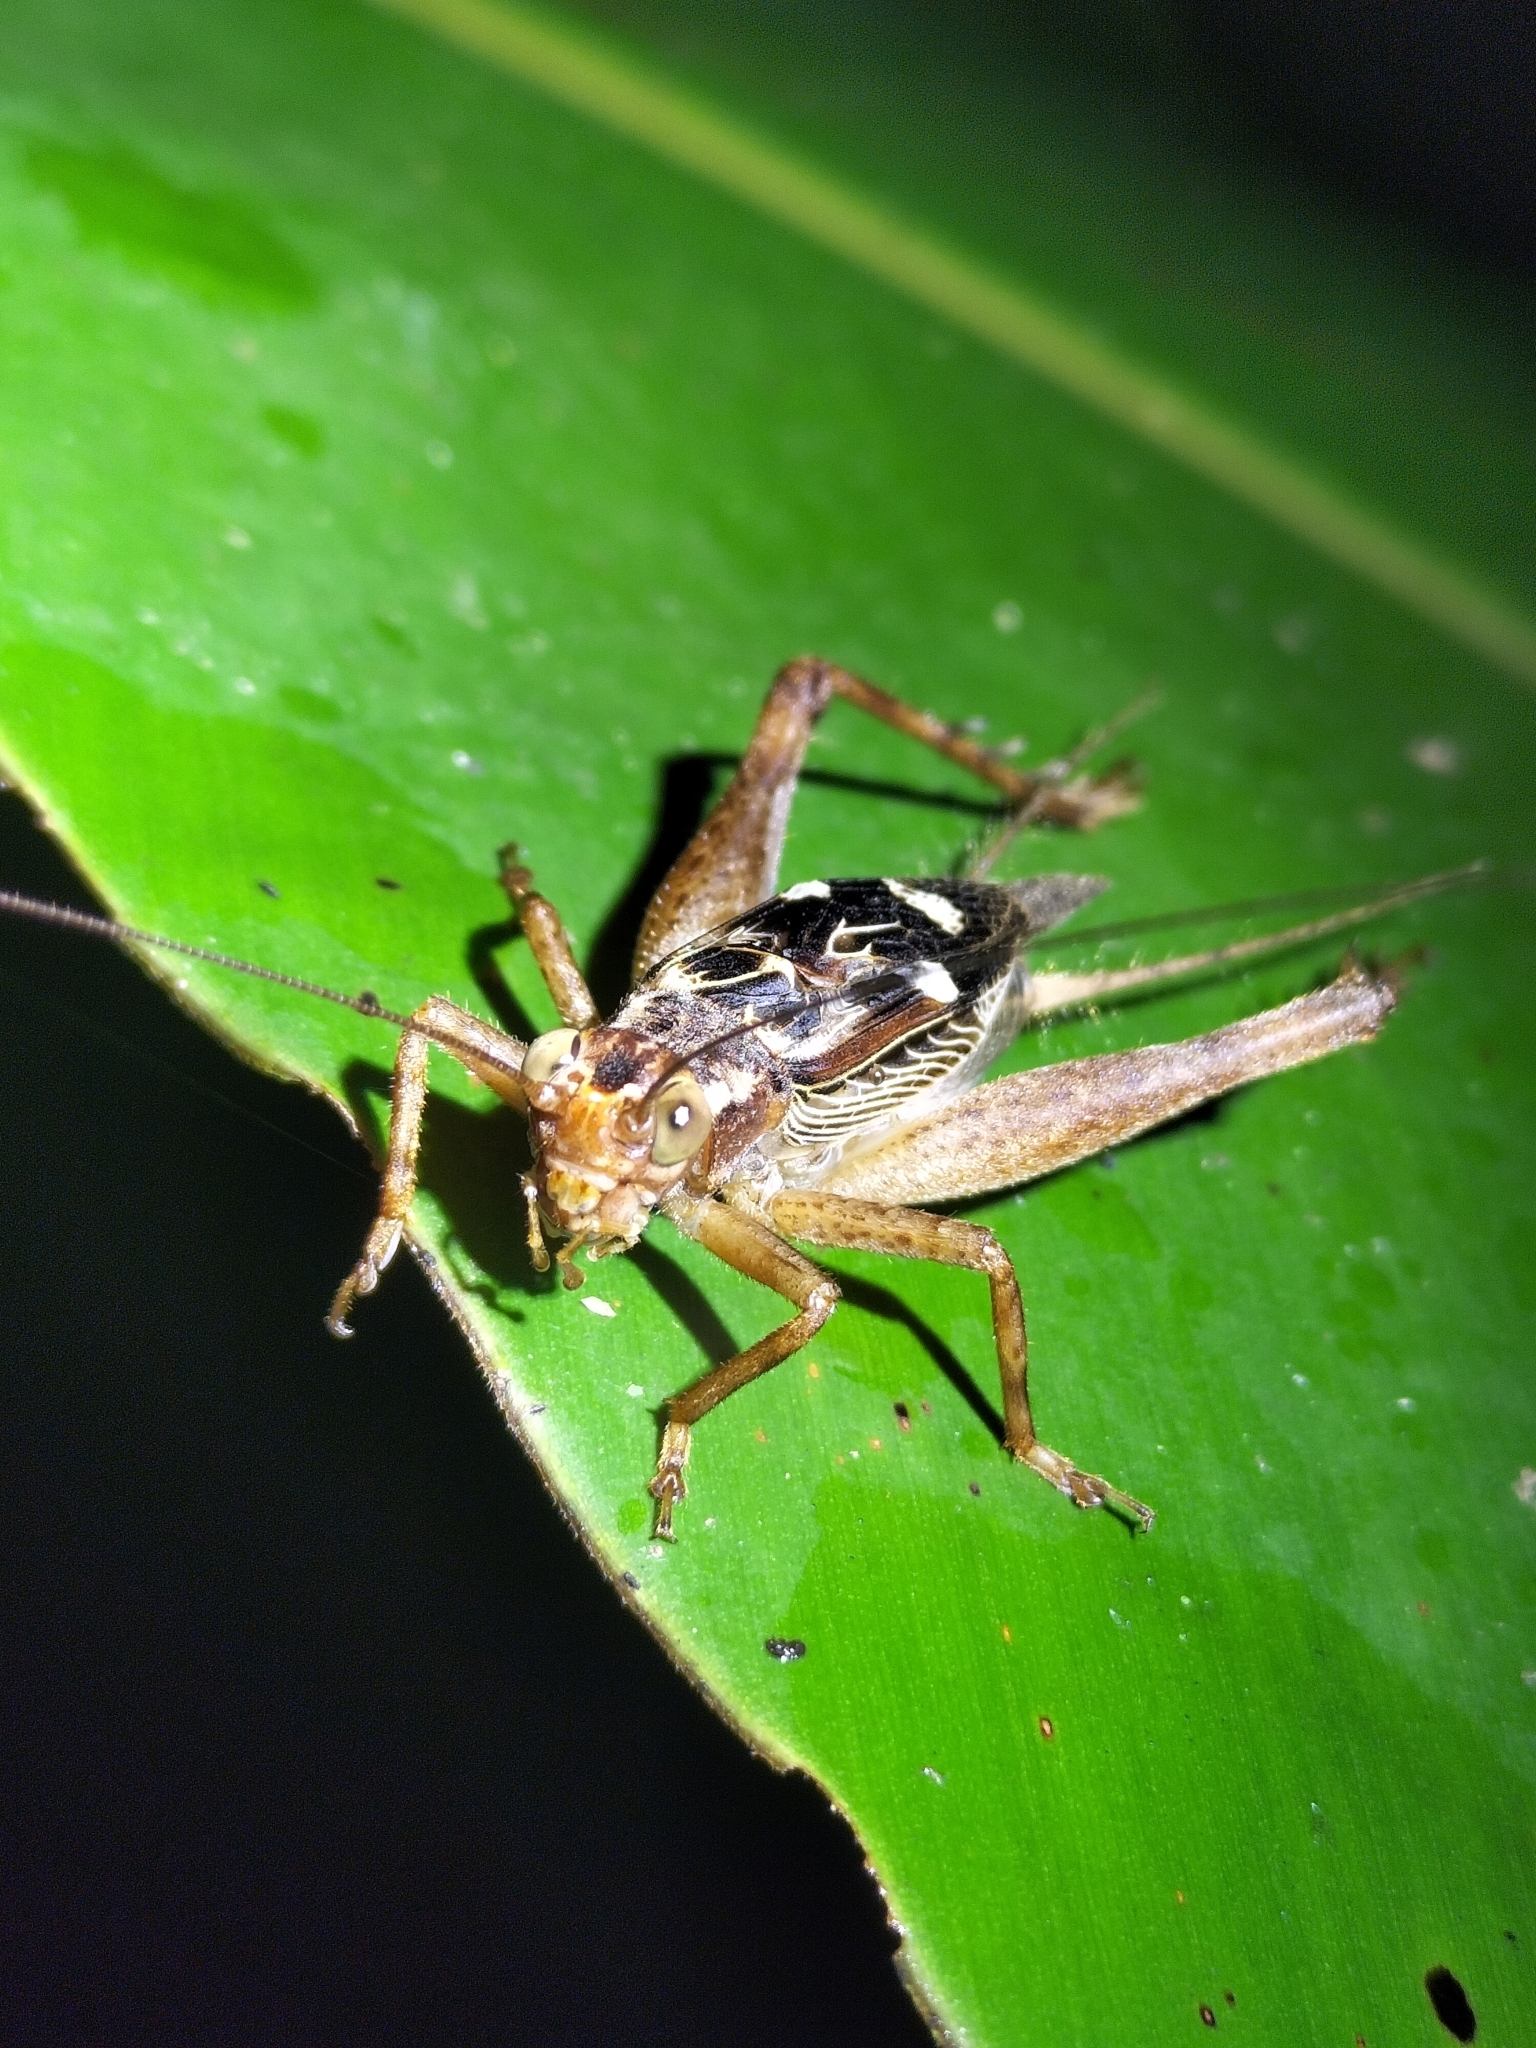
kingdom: Animalia
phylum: Arthropoda
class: Insecta
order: Orthoptera
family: Gryllidae
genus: Cardiodactylus
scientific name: Cardiodactylus novaeguineae
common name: Sad cricket
